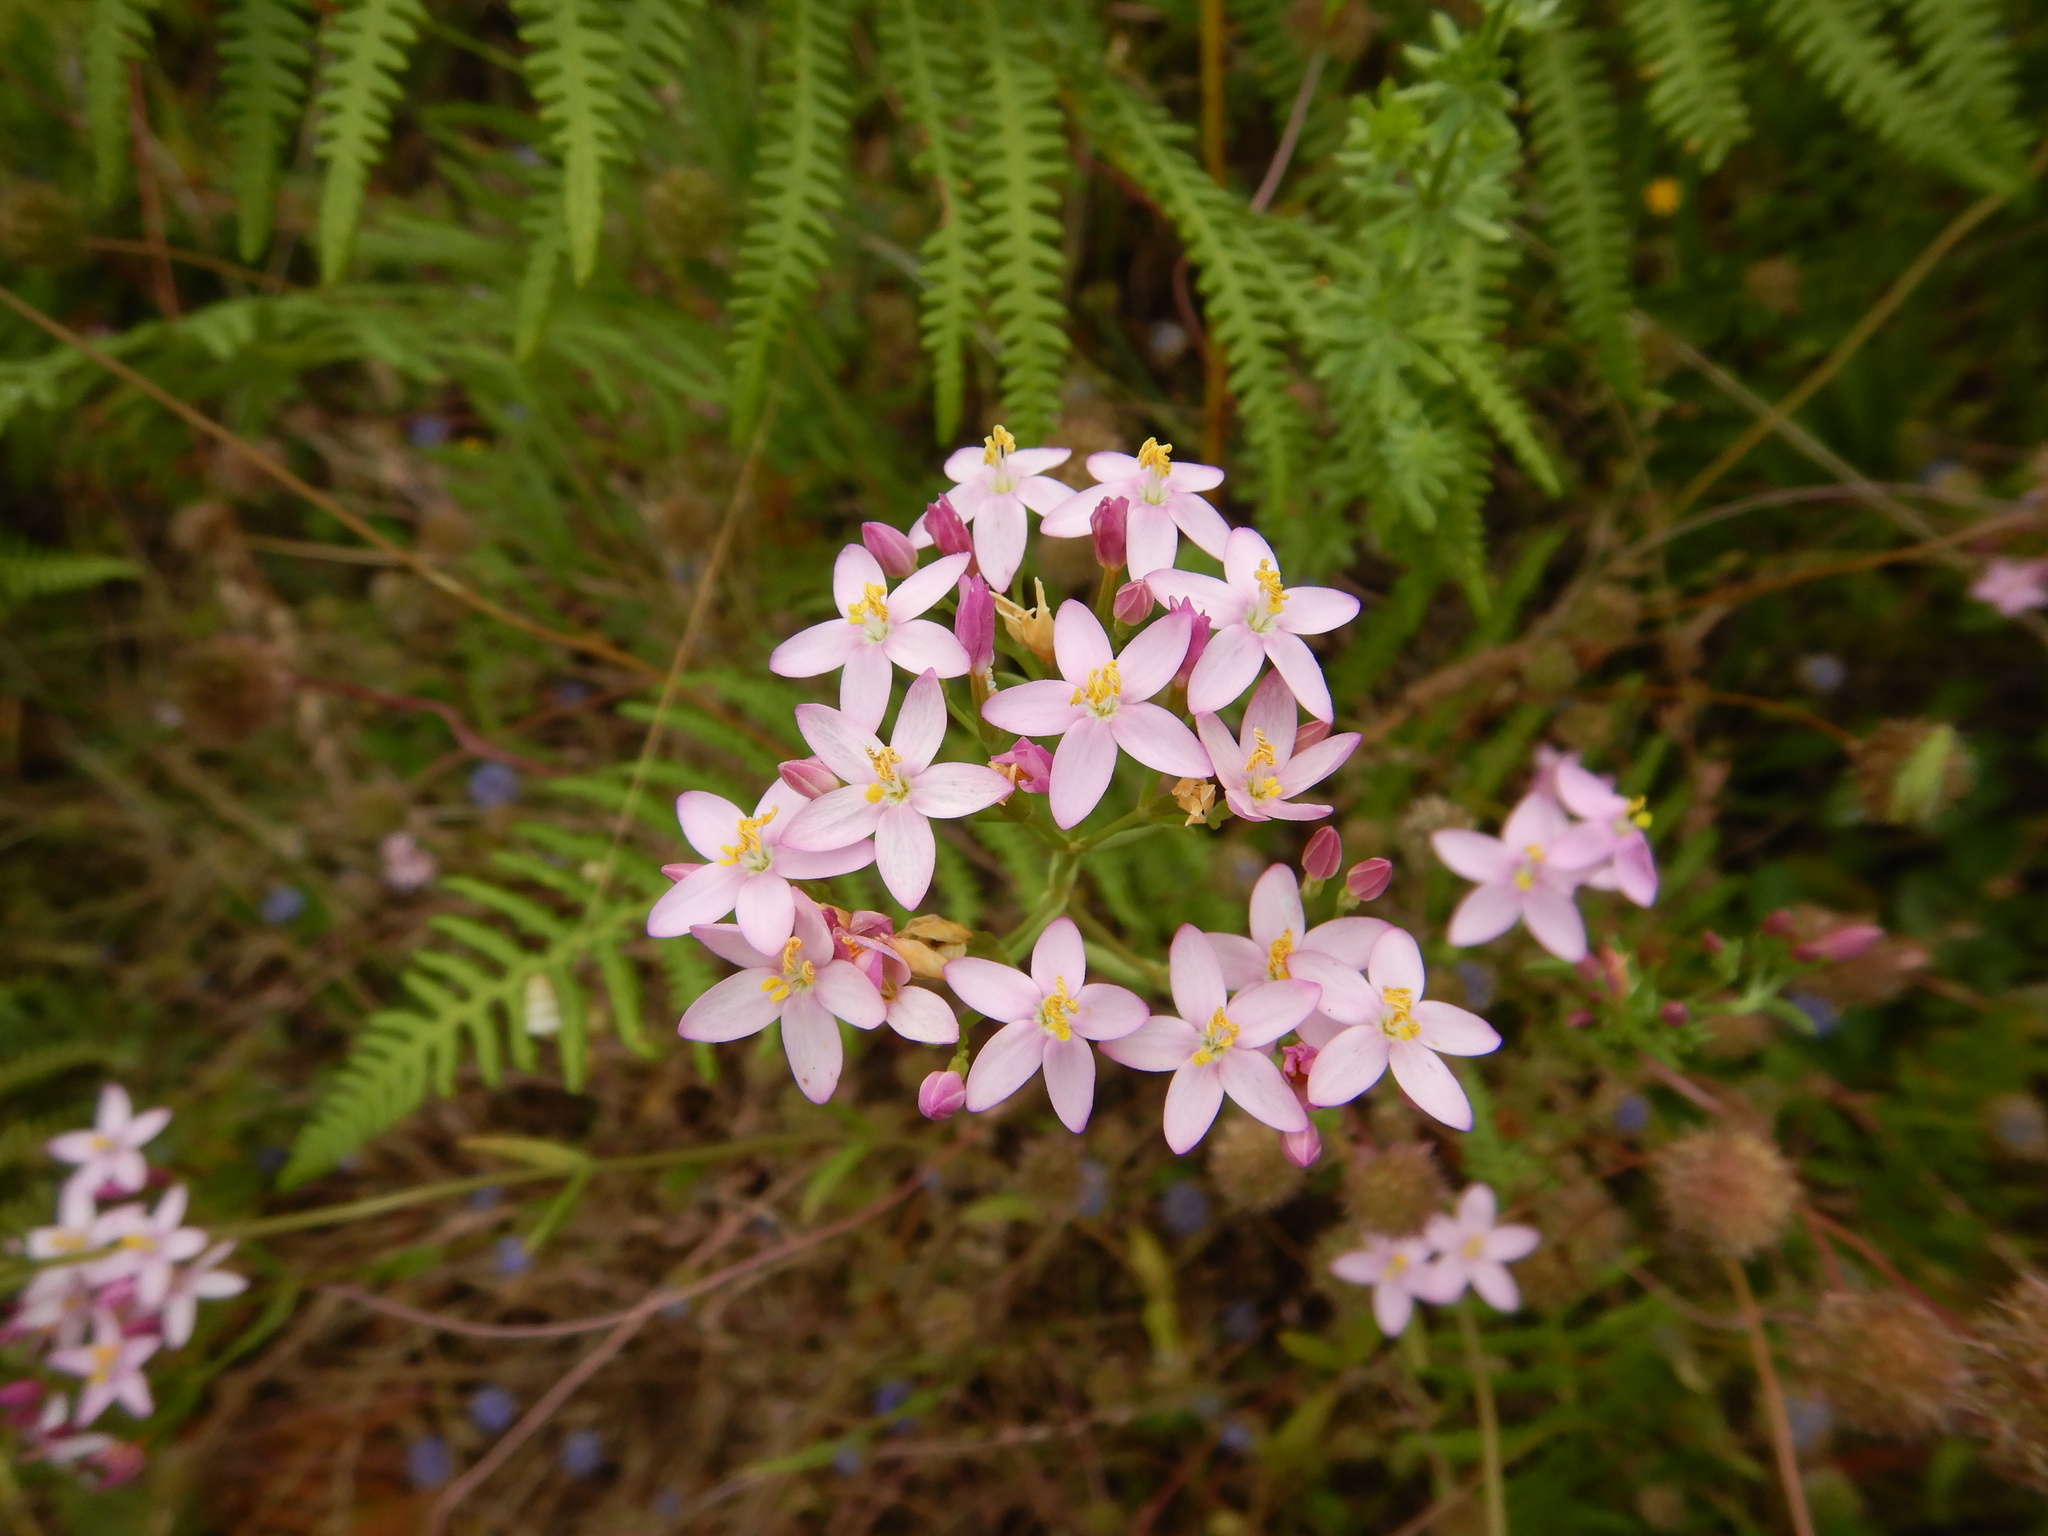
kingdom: Plantae
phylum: Tracheophyta
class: Magnoliopsida
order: Gentianales
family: Gentianaceae
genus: Centaurium
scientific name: Centaurium erythraea
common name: Common centaury
